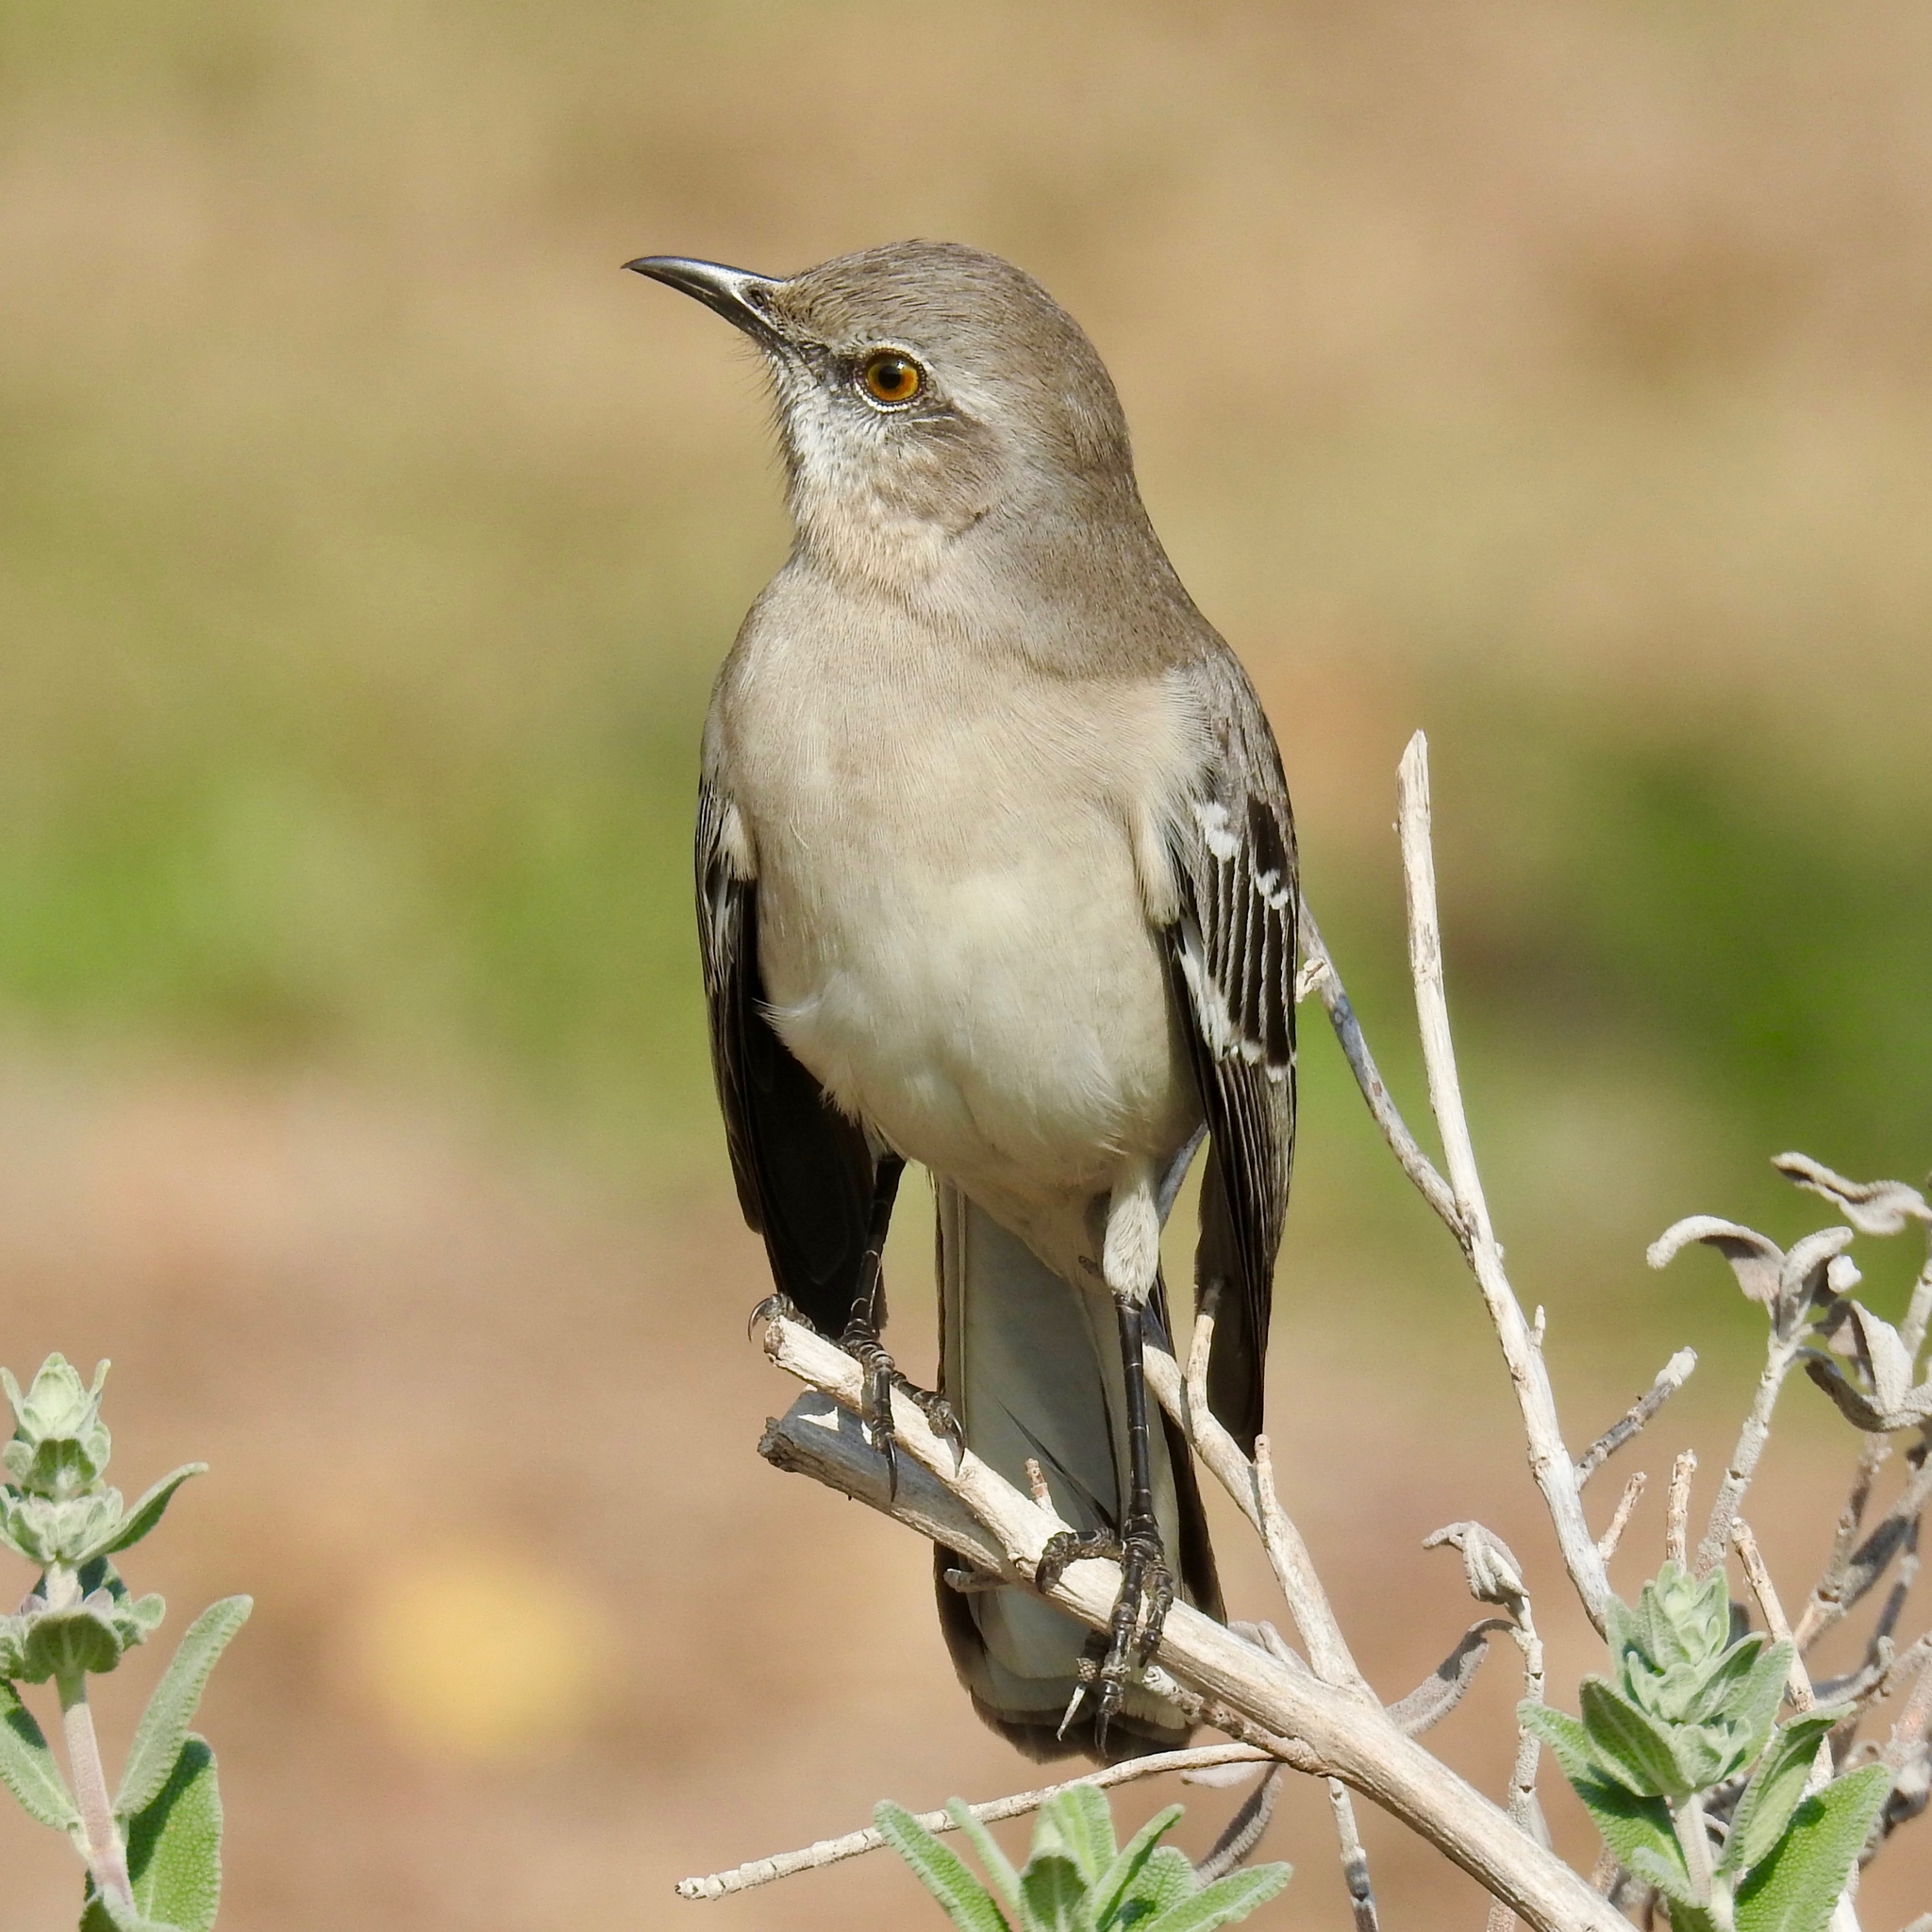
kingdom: Animalia
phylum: Chordata
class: Aves
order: Passeriformes
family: Mimidae
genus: Mimus
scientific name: Mimus polyglottos
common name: Northern mockingbird
